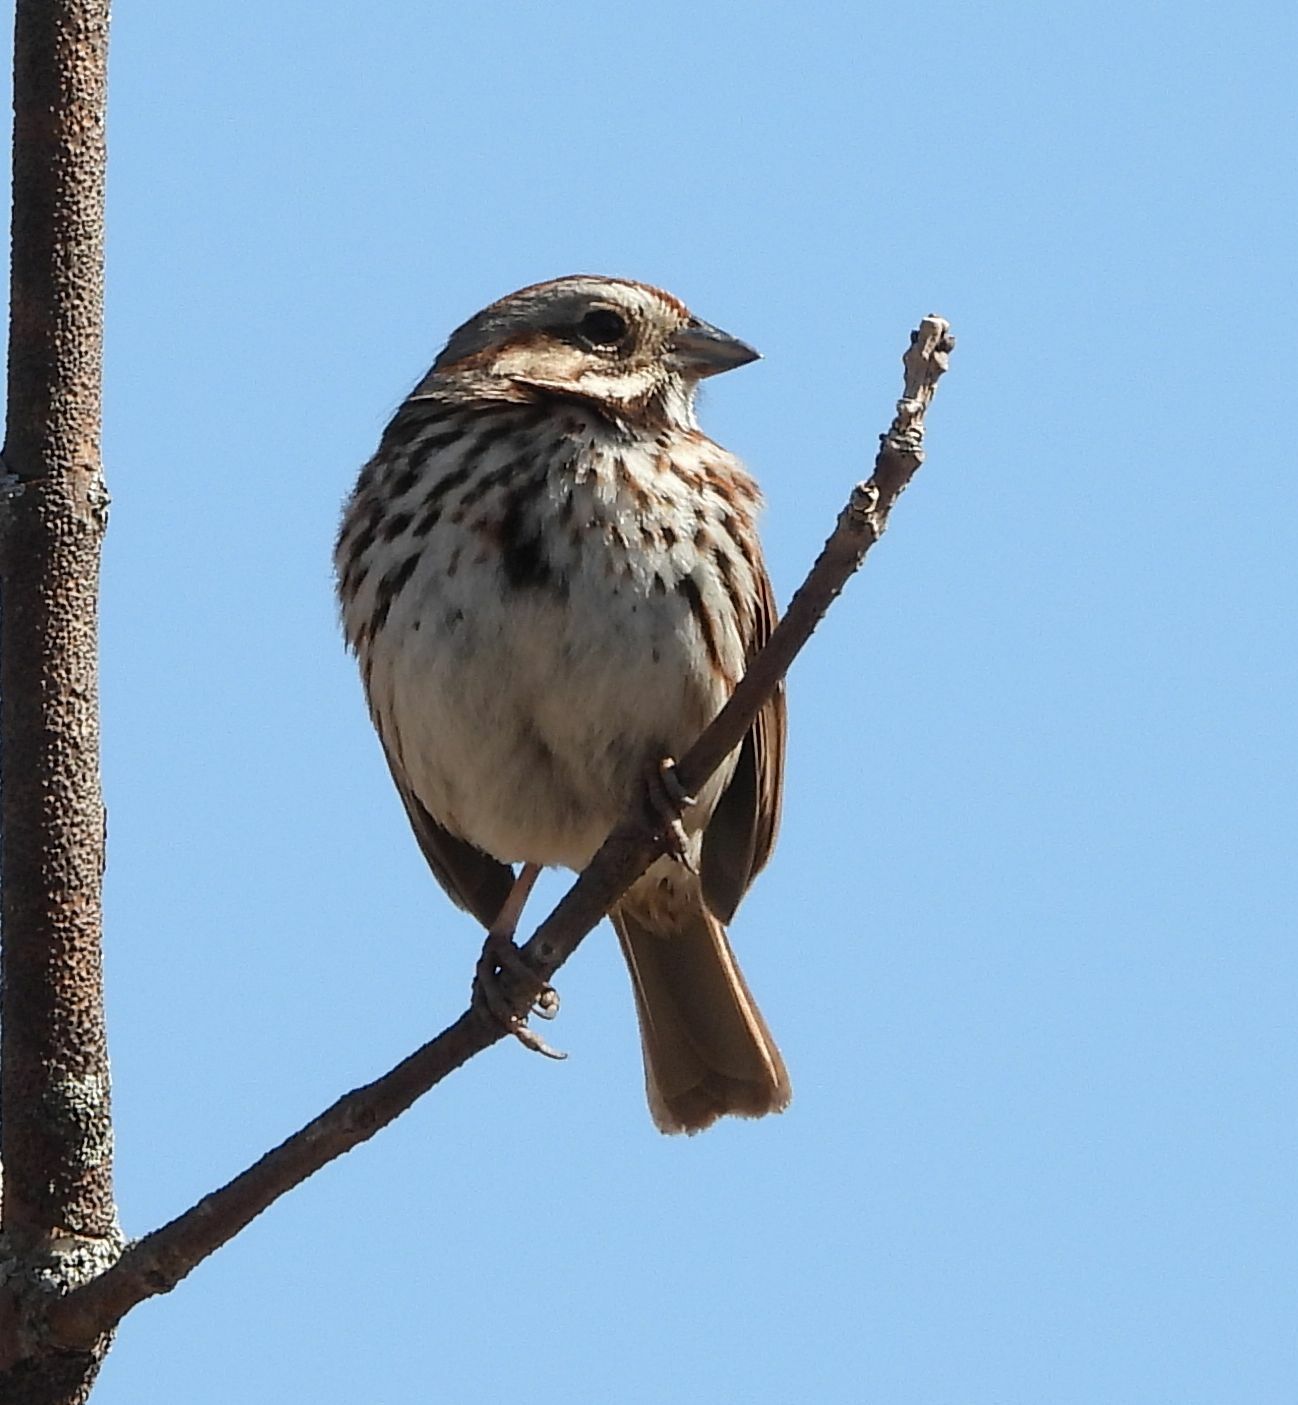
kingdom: Animalia
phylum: Chordata
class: Aves
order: Passeriformes
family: Passerellidae
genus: Melospiza
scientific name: Melospiza melodia
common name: Song sparrow
